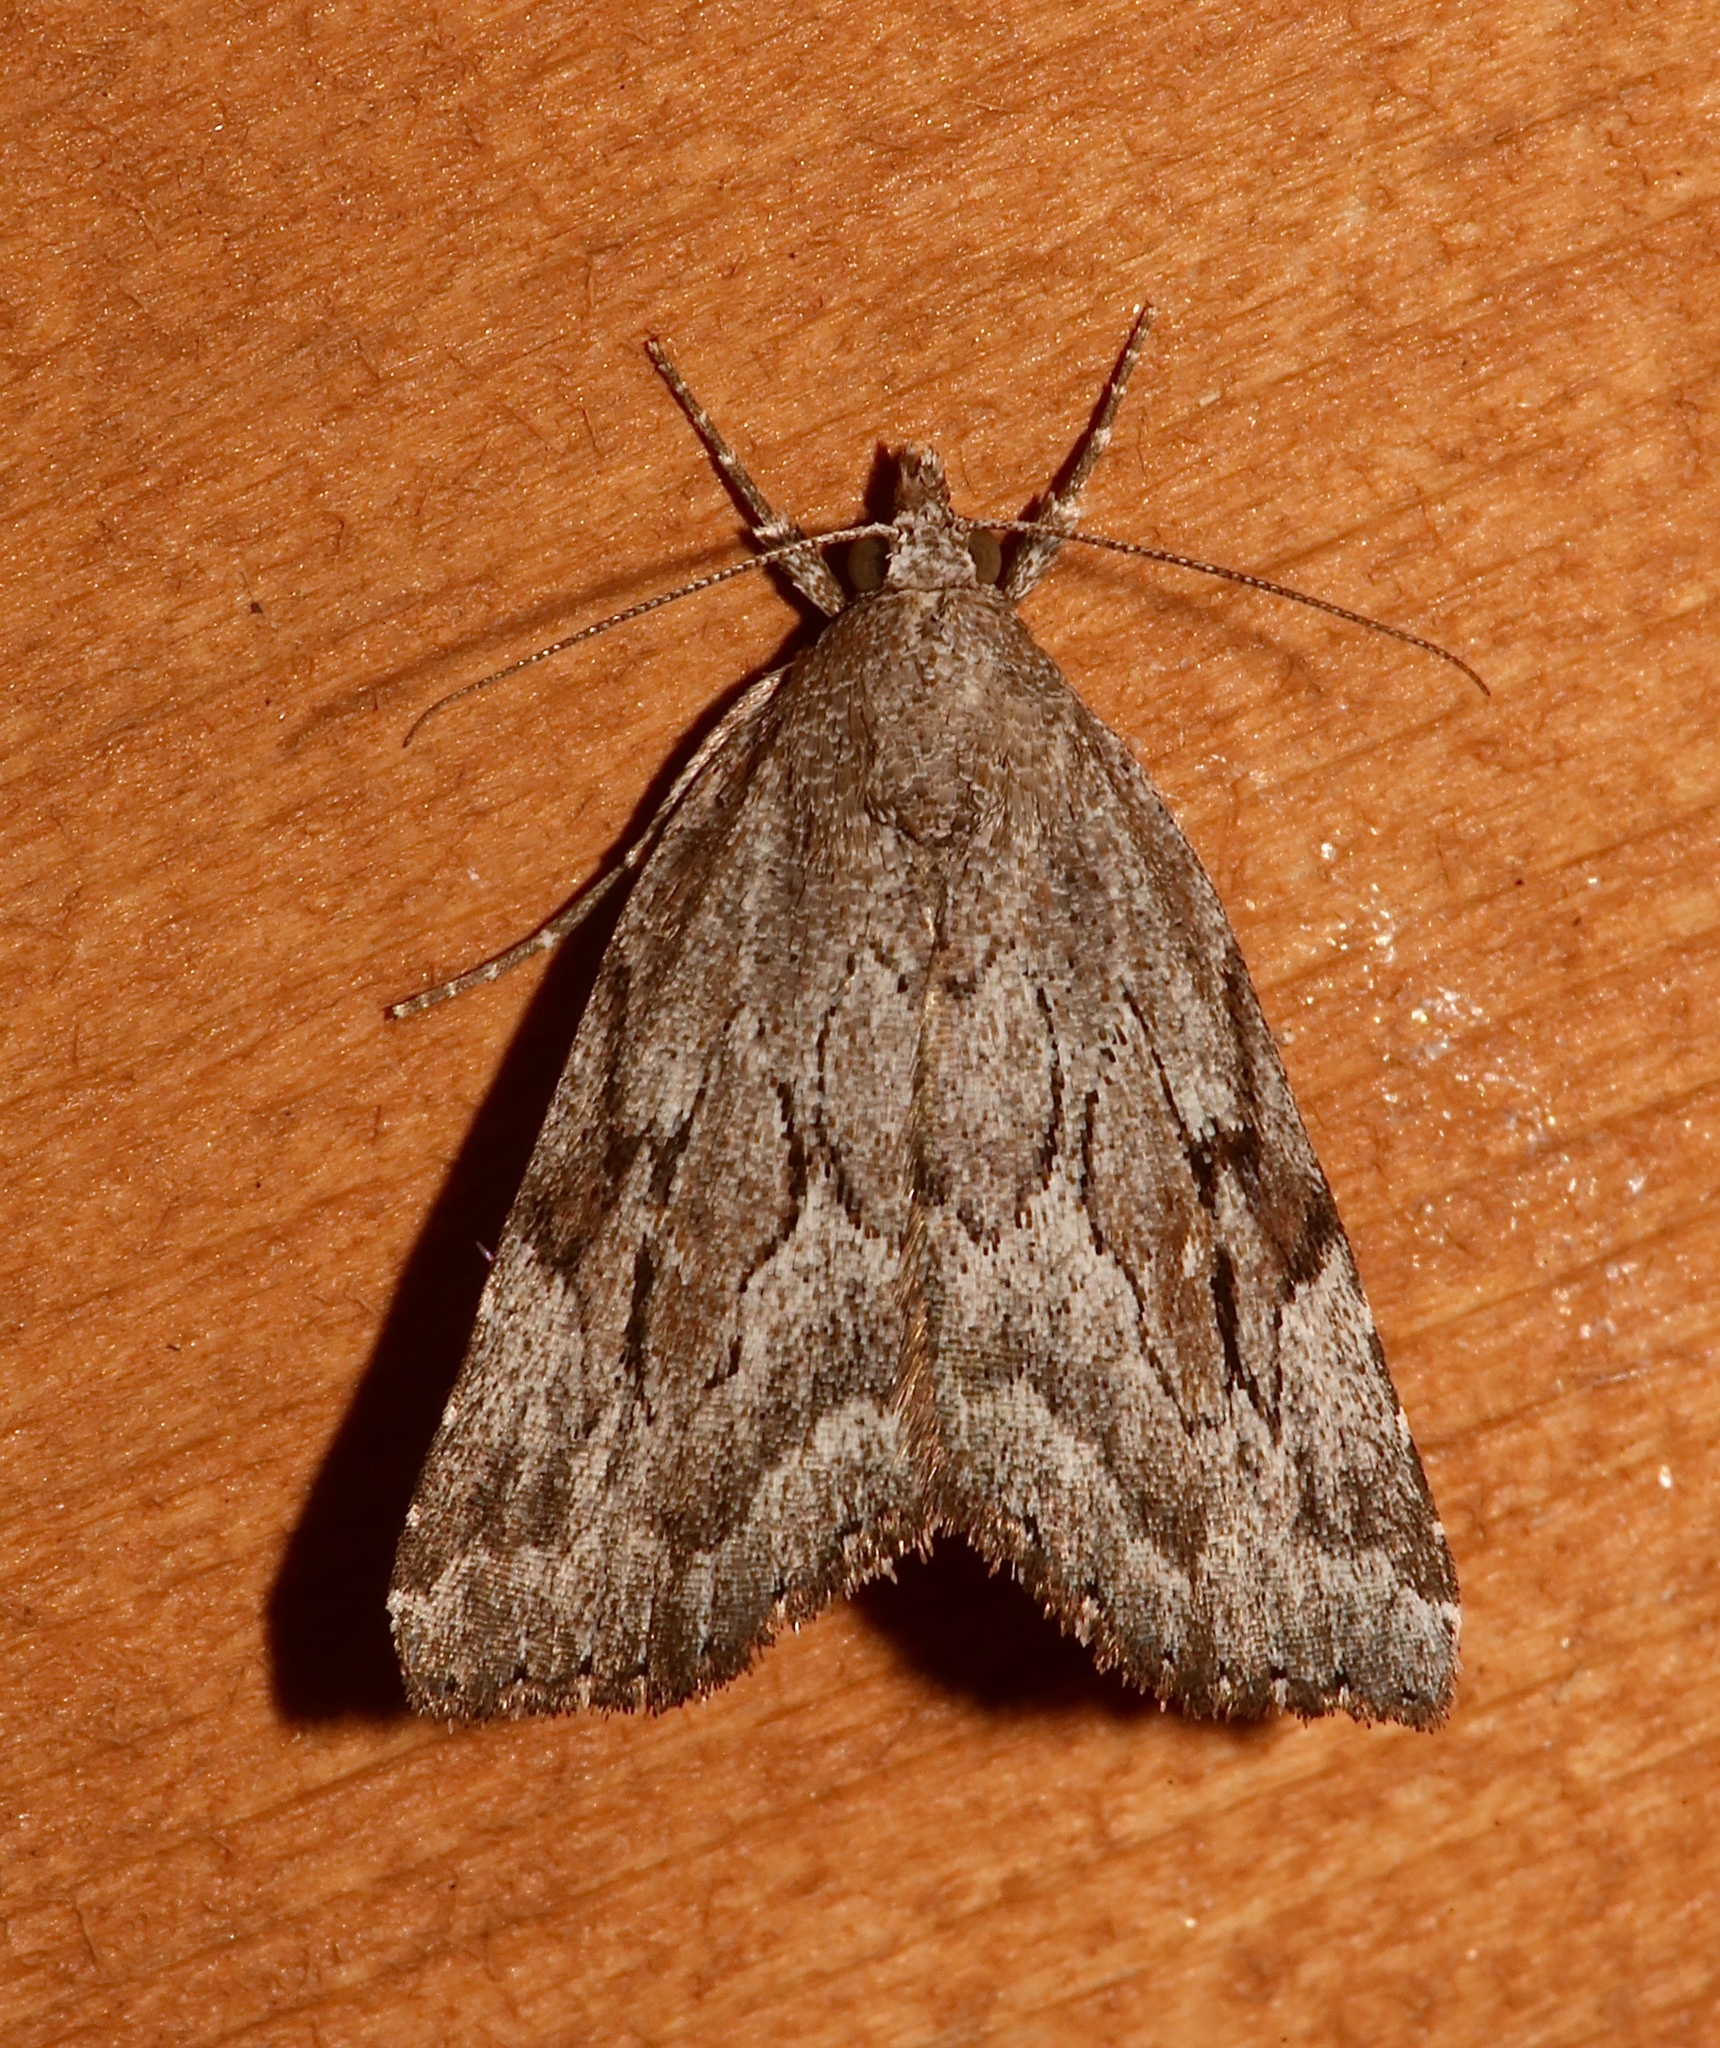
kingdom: Animalia
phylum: Arthropoda
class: Insecta
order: Lepidoptera
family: Erebidae
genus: Cutina
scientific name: Cutina albopunctella
